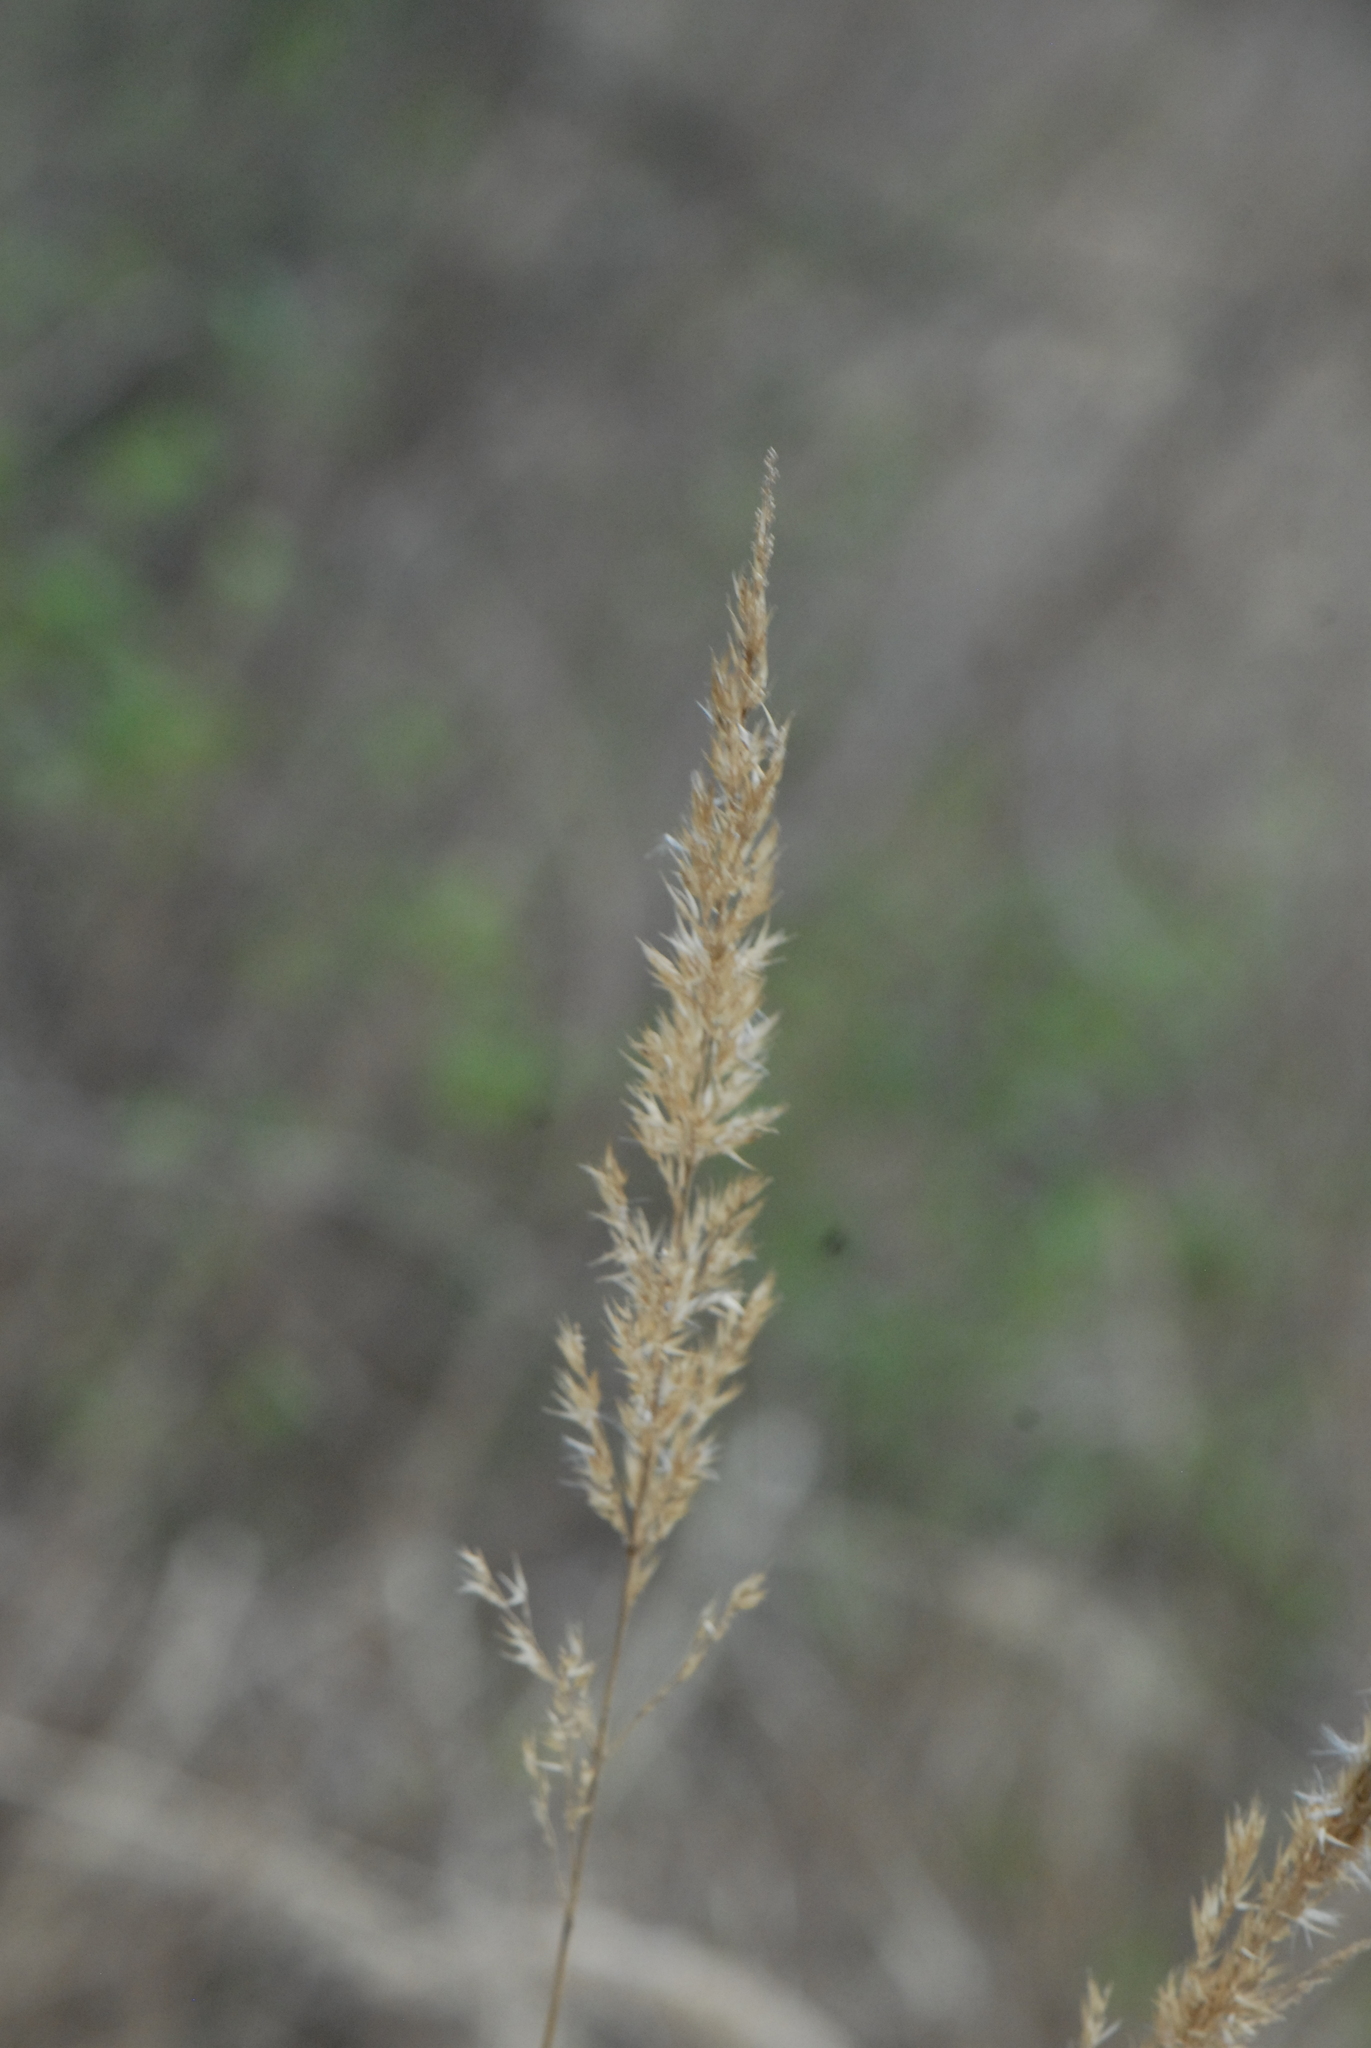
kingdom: Plantae
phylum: Tracheophyta
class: Liliopsida
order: Poales
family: Poaceae
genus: Calamagrostis
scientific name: Calamagrostis epigejos
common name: Wood small-reed
